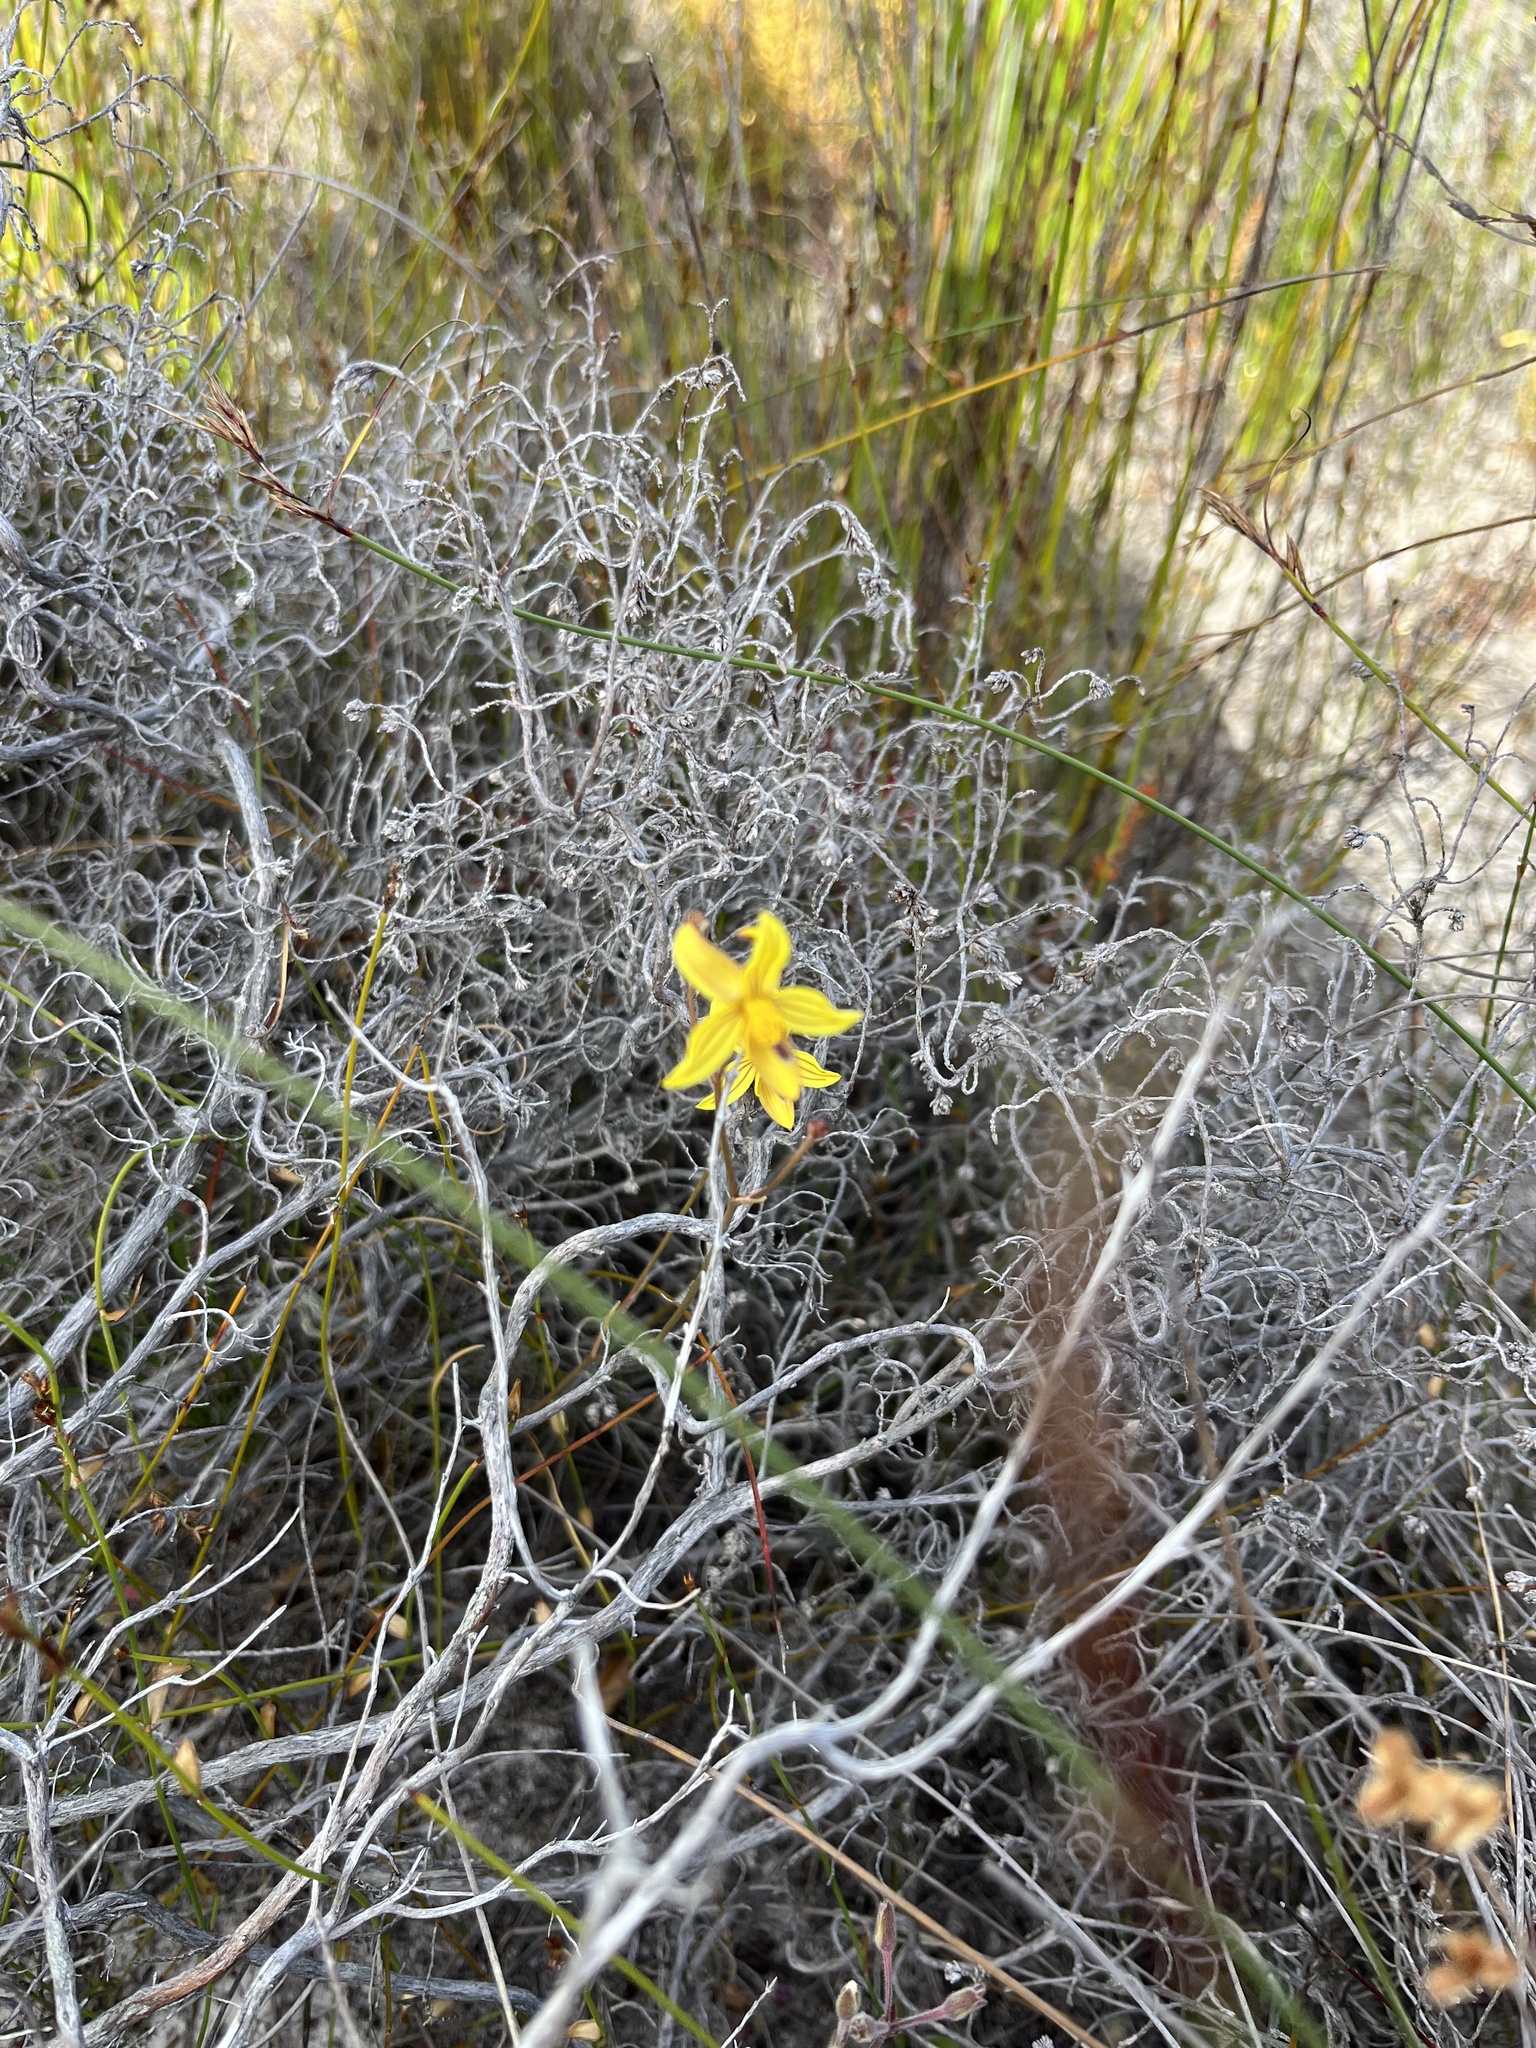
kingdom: Plantae
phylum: Tracheophyta
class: Liliopsida
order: Asparagales
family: Tecophilaeaceae
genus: Cyanella
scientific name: Cyanella lutea
